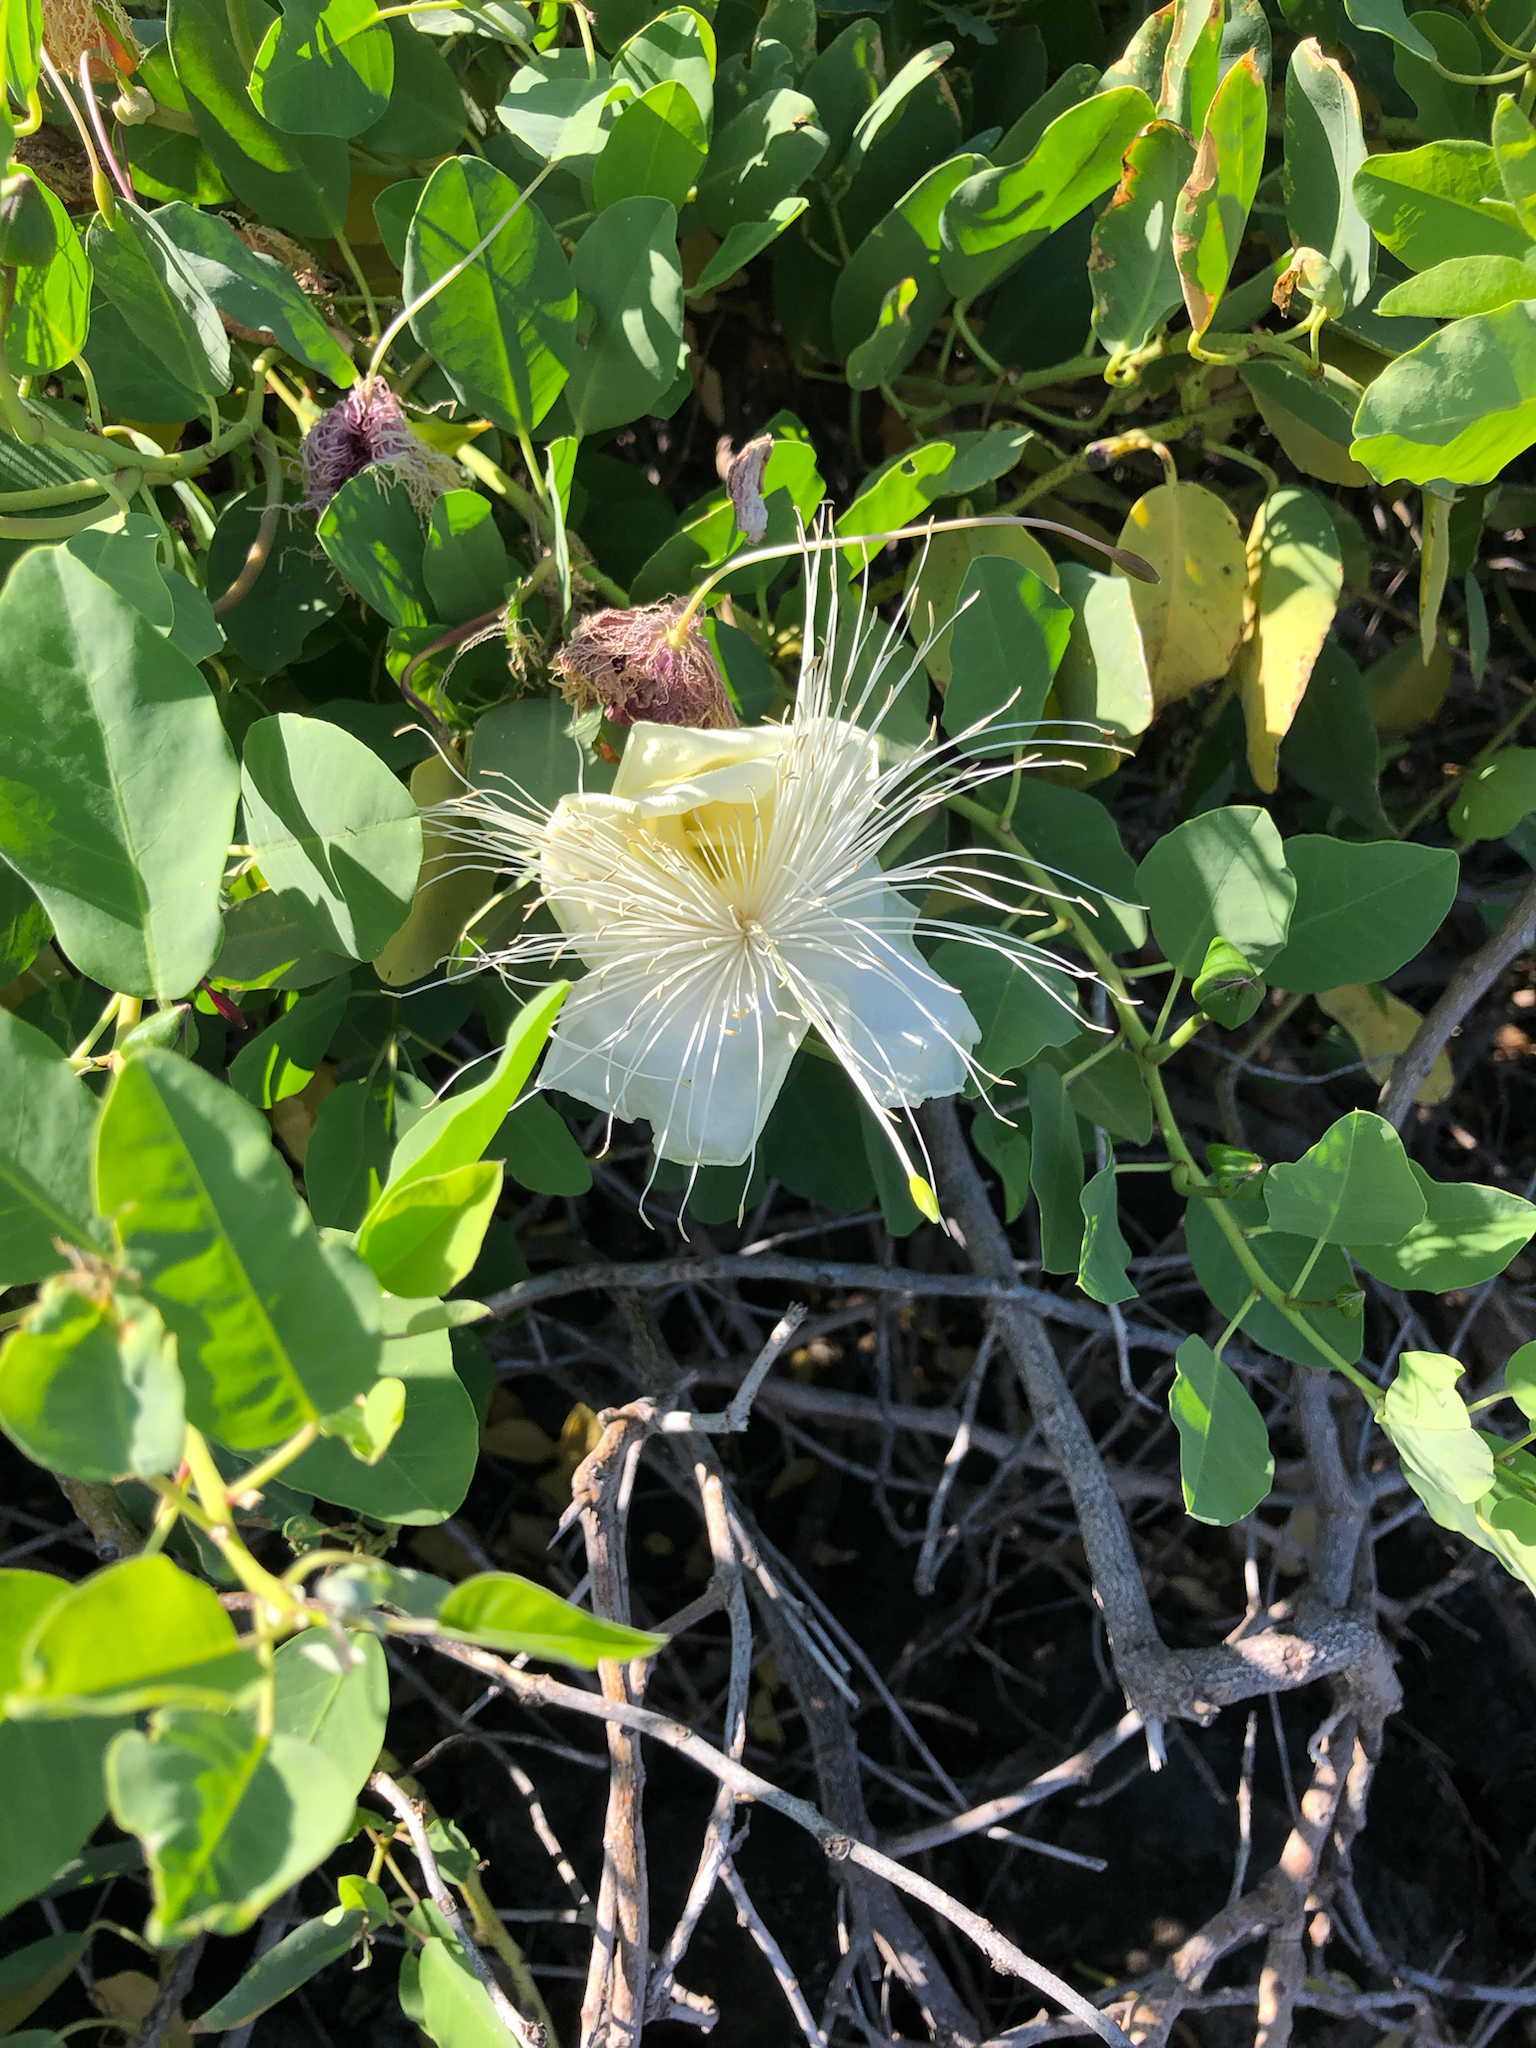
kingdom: Plantae
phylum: Tracheophyta
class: Magnoliopsida
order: Brassicales
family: Capparaceae
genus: Capparis
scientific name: Capparis spinosa
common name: Caper
